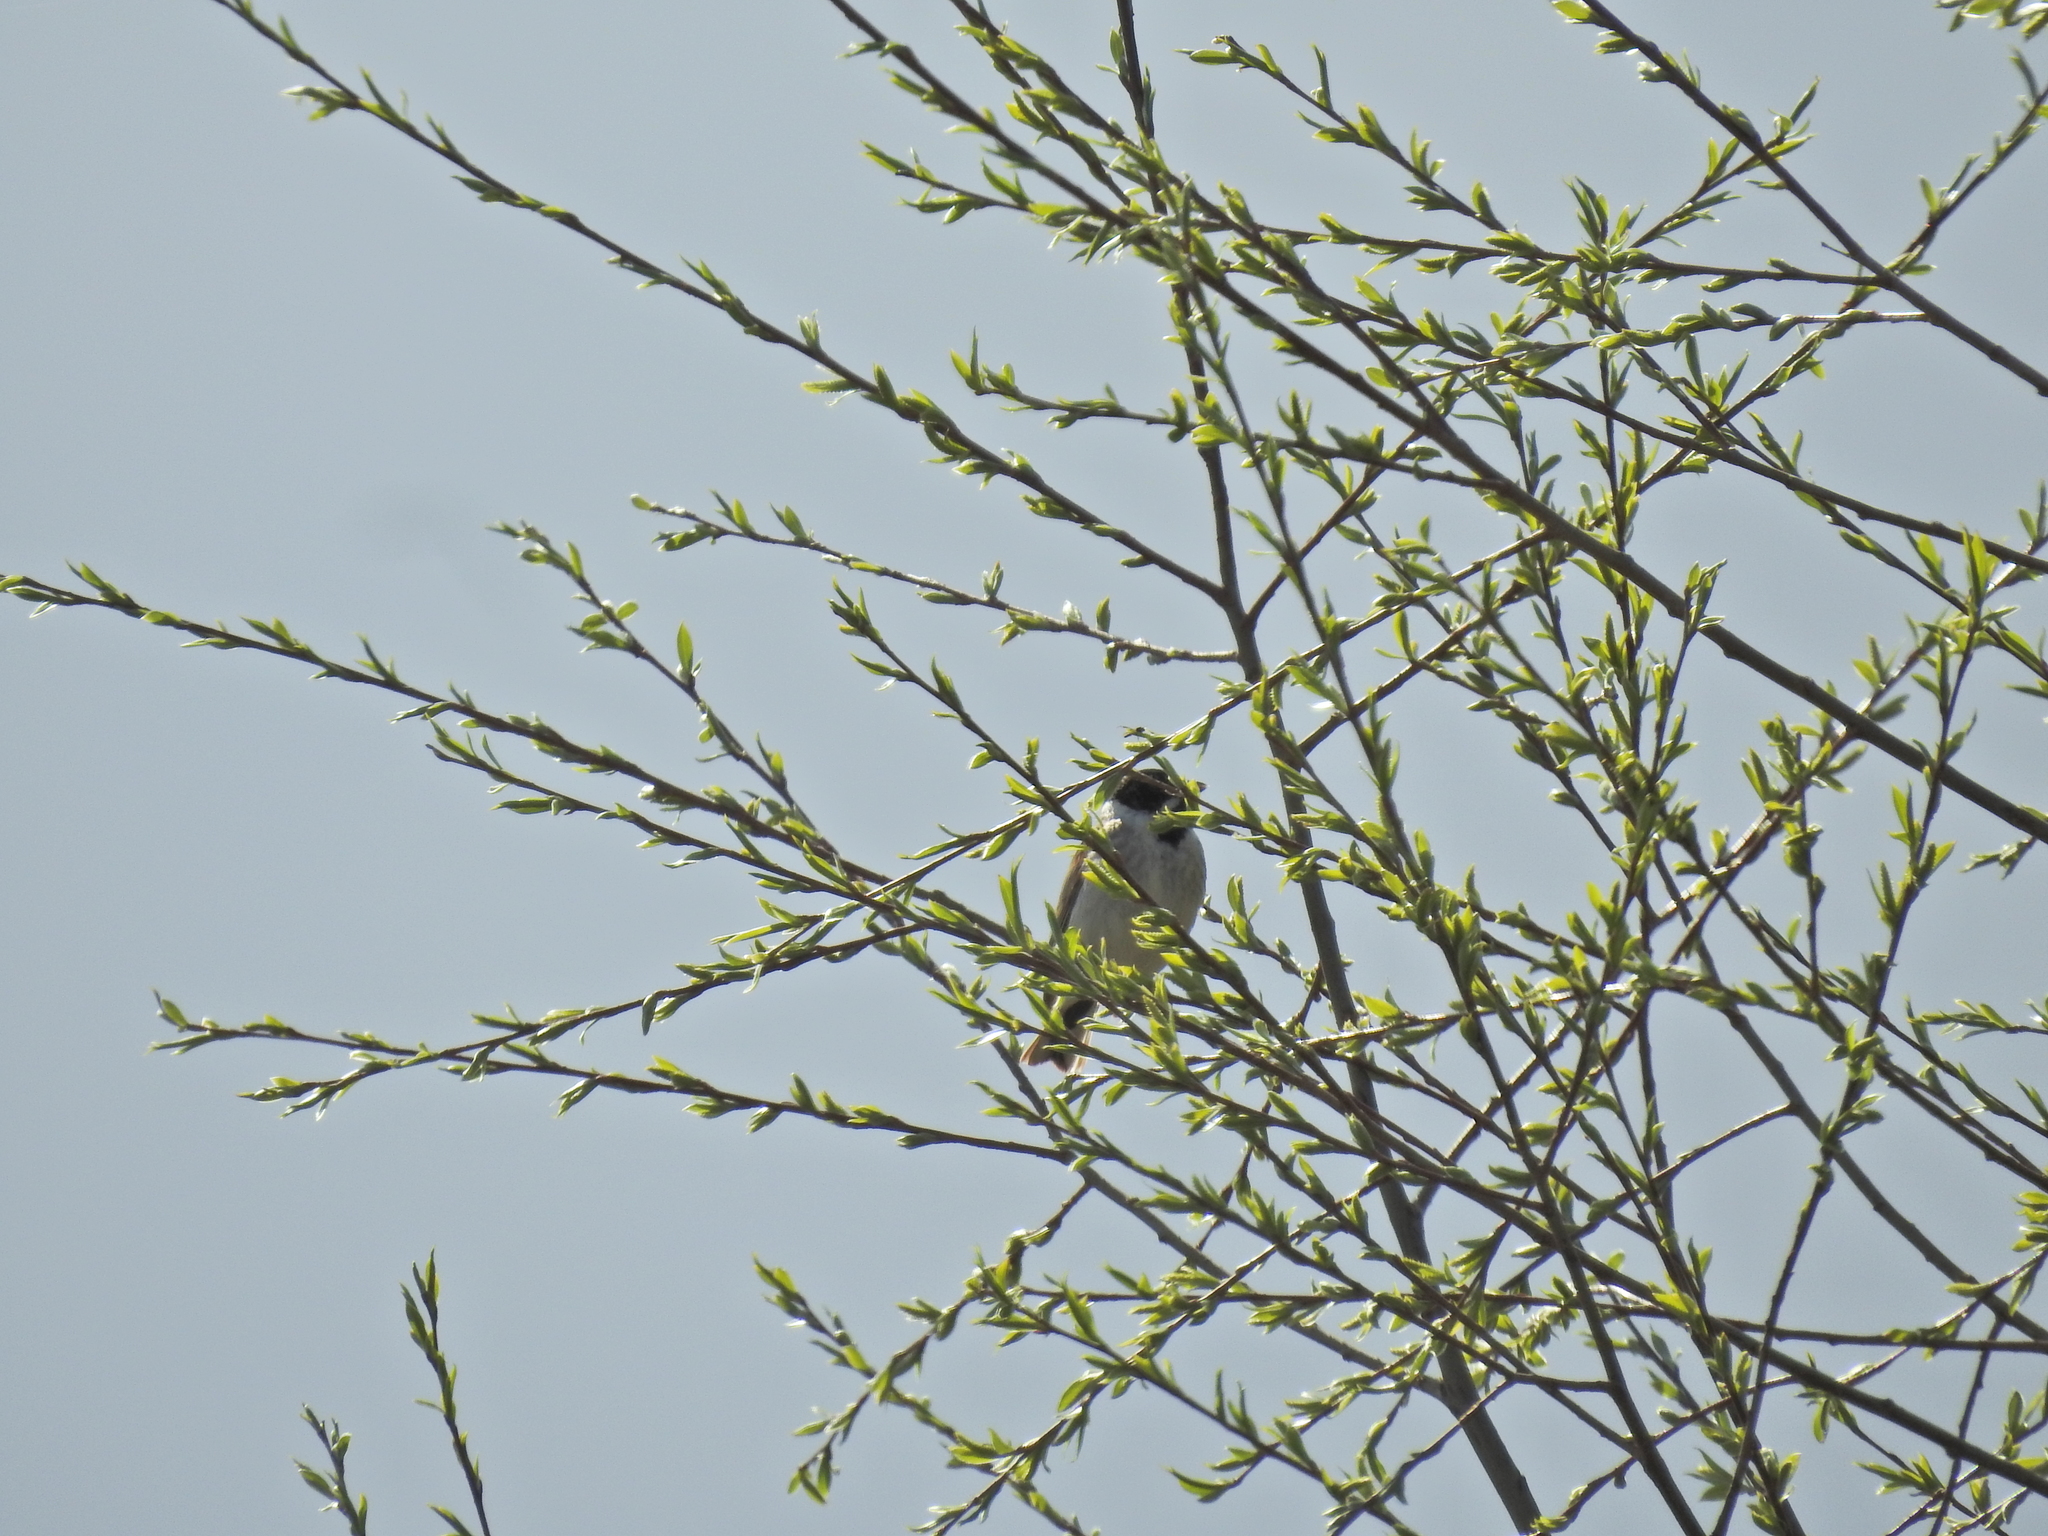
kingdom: Animalia
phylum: Chordata
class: Aves
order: Passeriformes
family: Emberizidae
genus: Emberiza
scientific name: Emberiza schoeniclus
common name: Reed bunting
